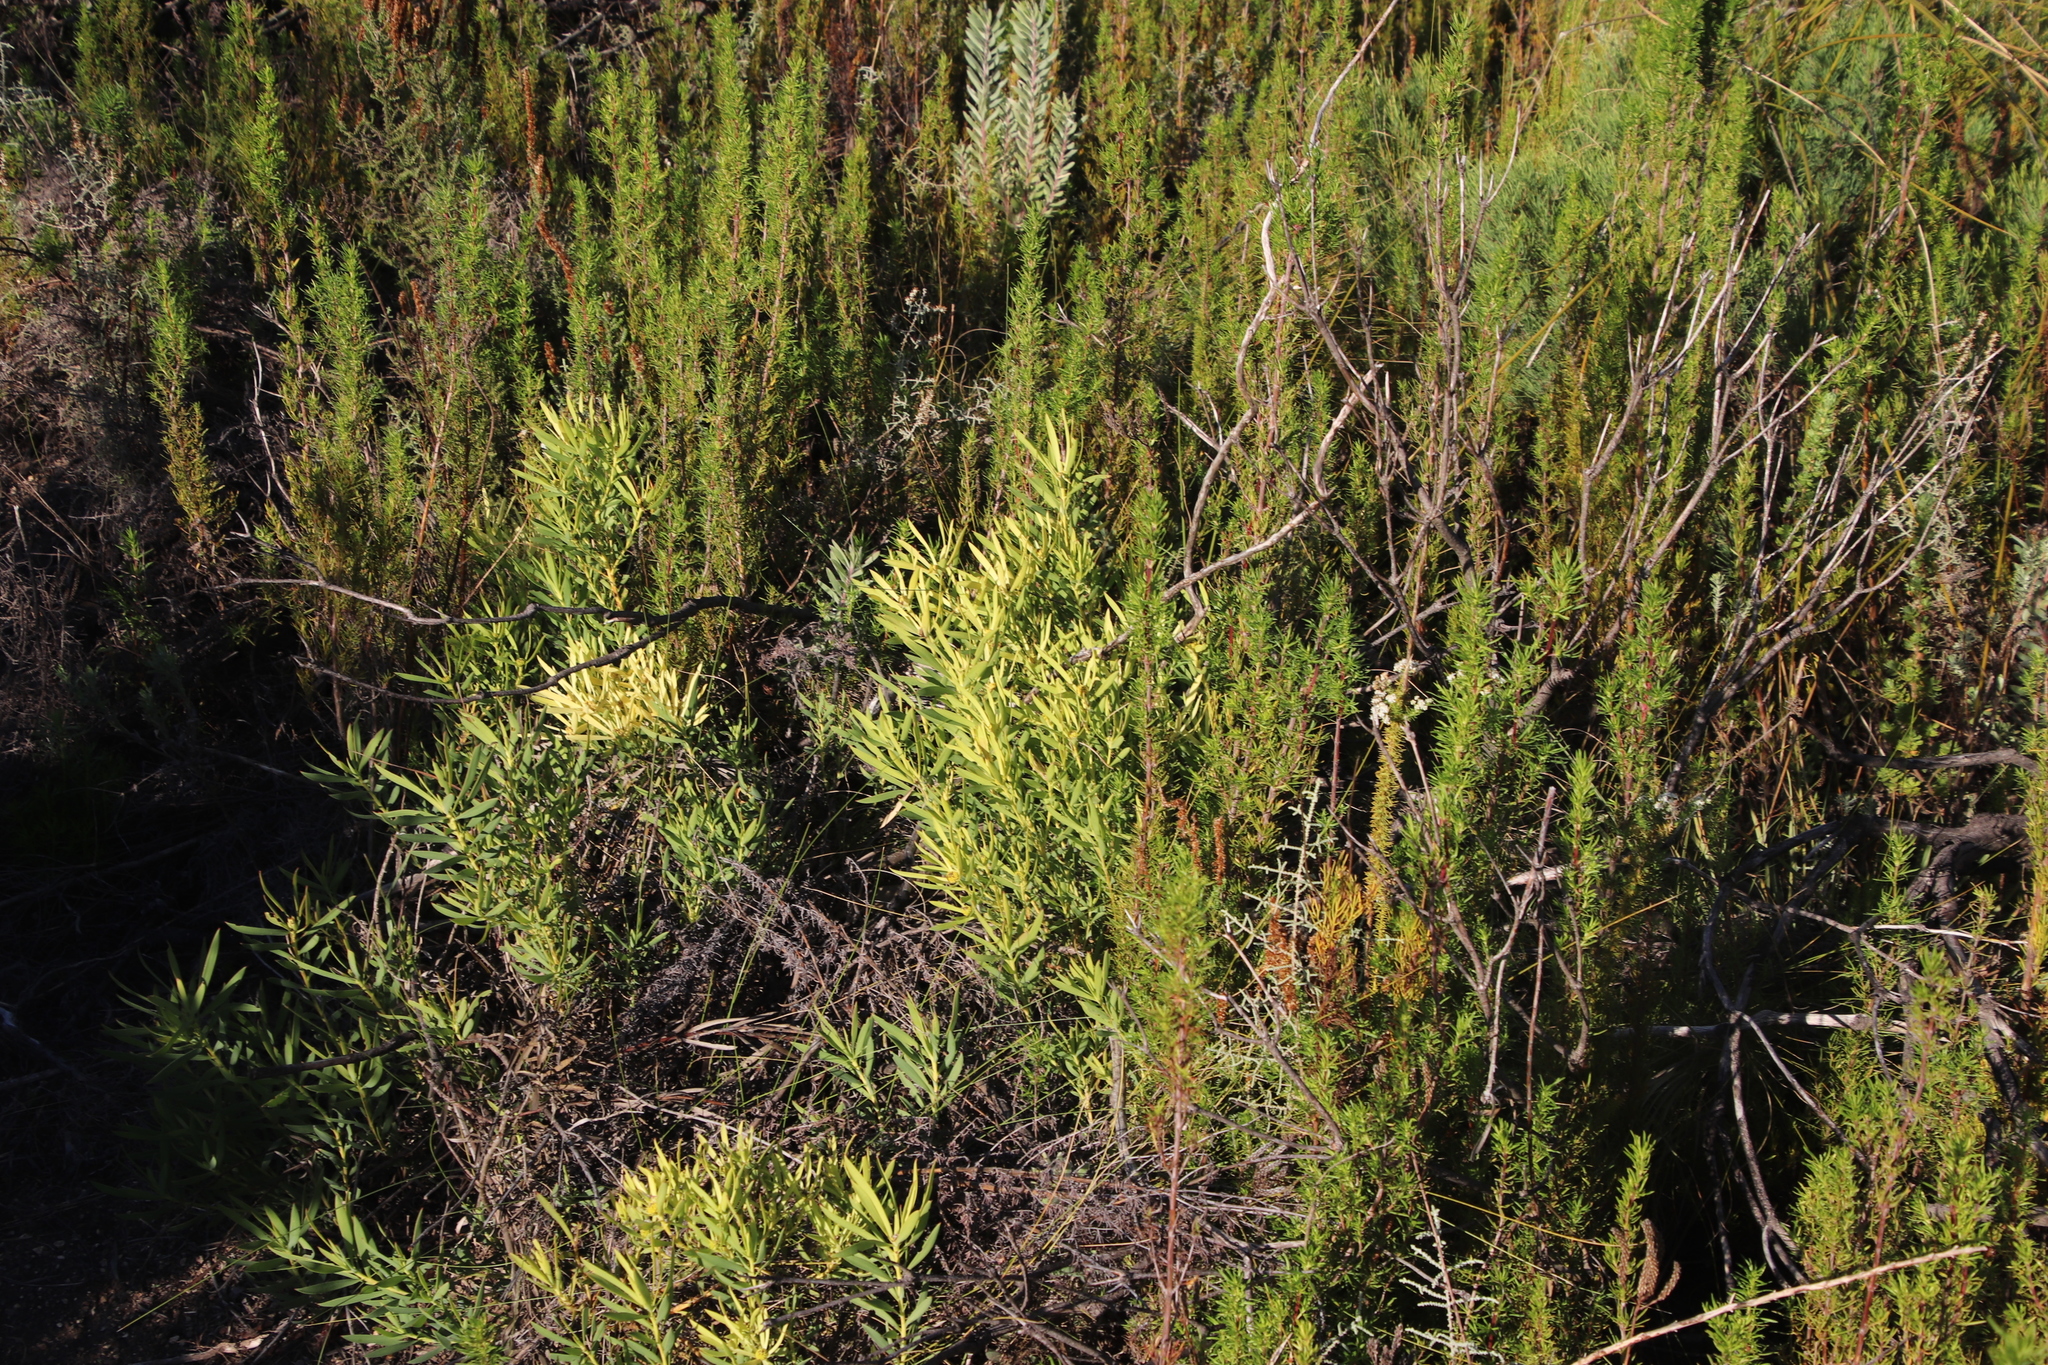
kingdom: Plantae
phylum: Tracheophyta
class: Magnoliopsida
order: Proteales
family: Proteaceae
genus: Leucadendron
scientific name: Leucadendron spissifolium
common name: Spear-leaf conebush
